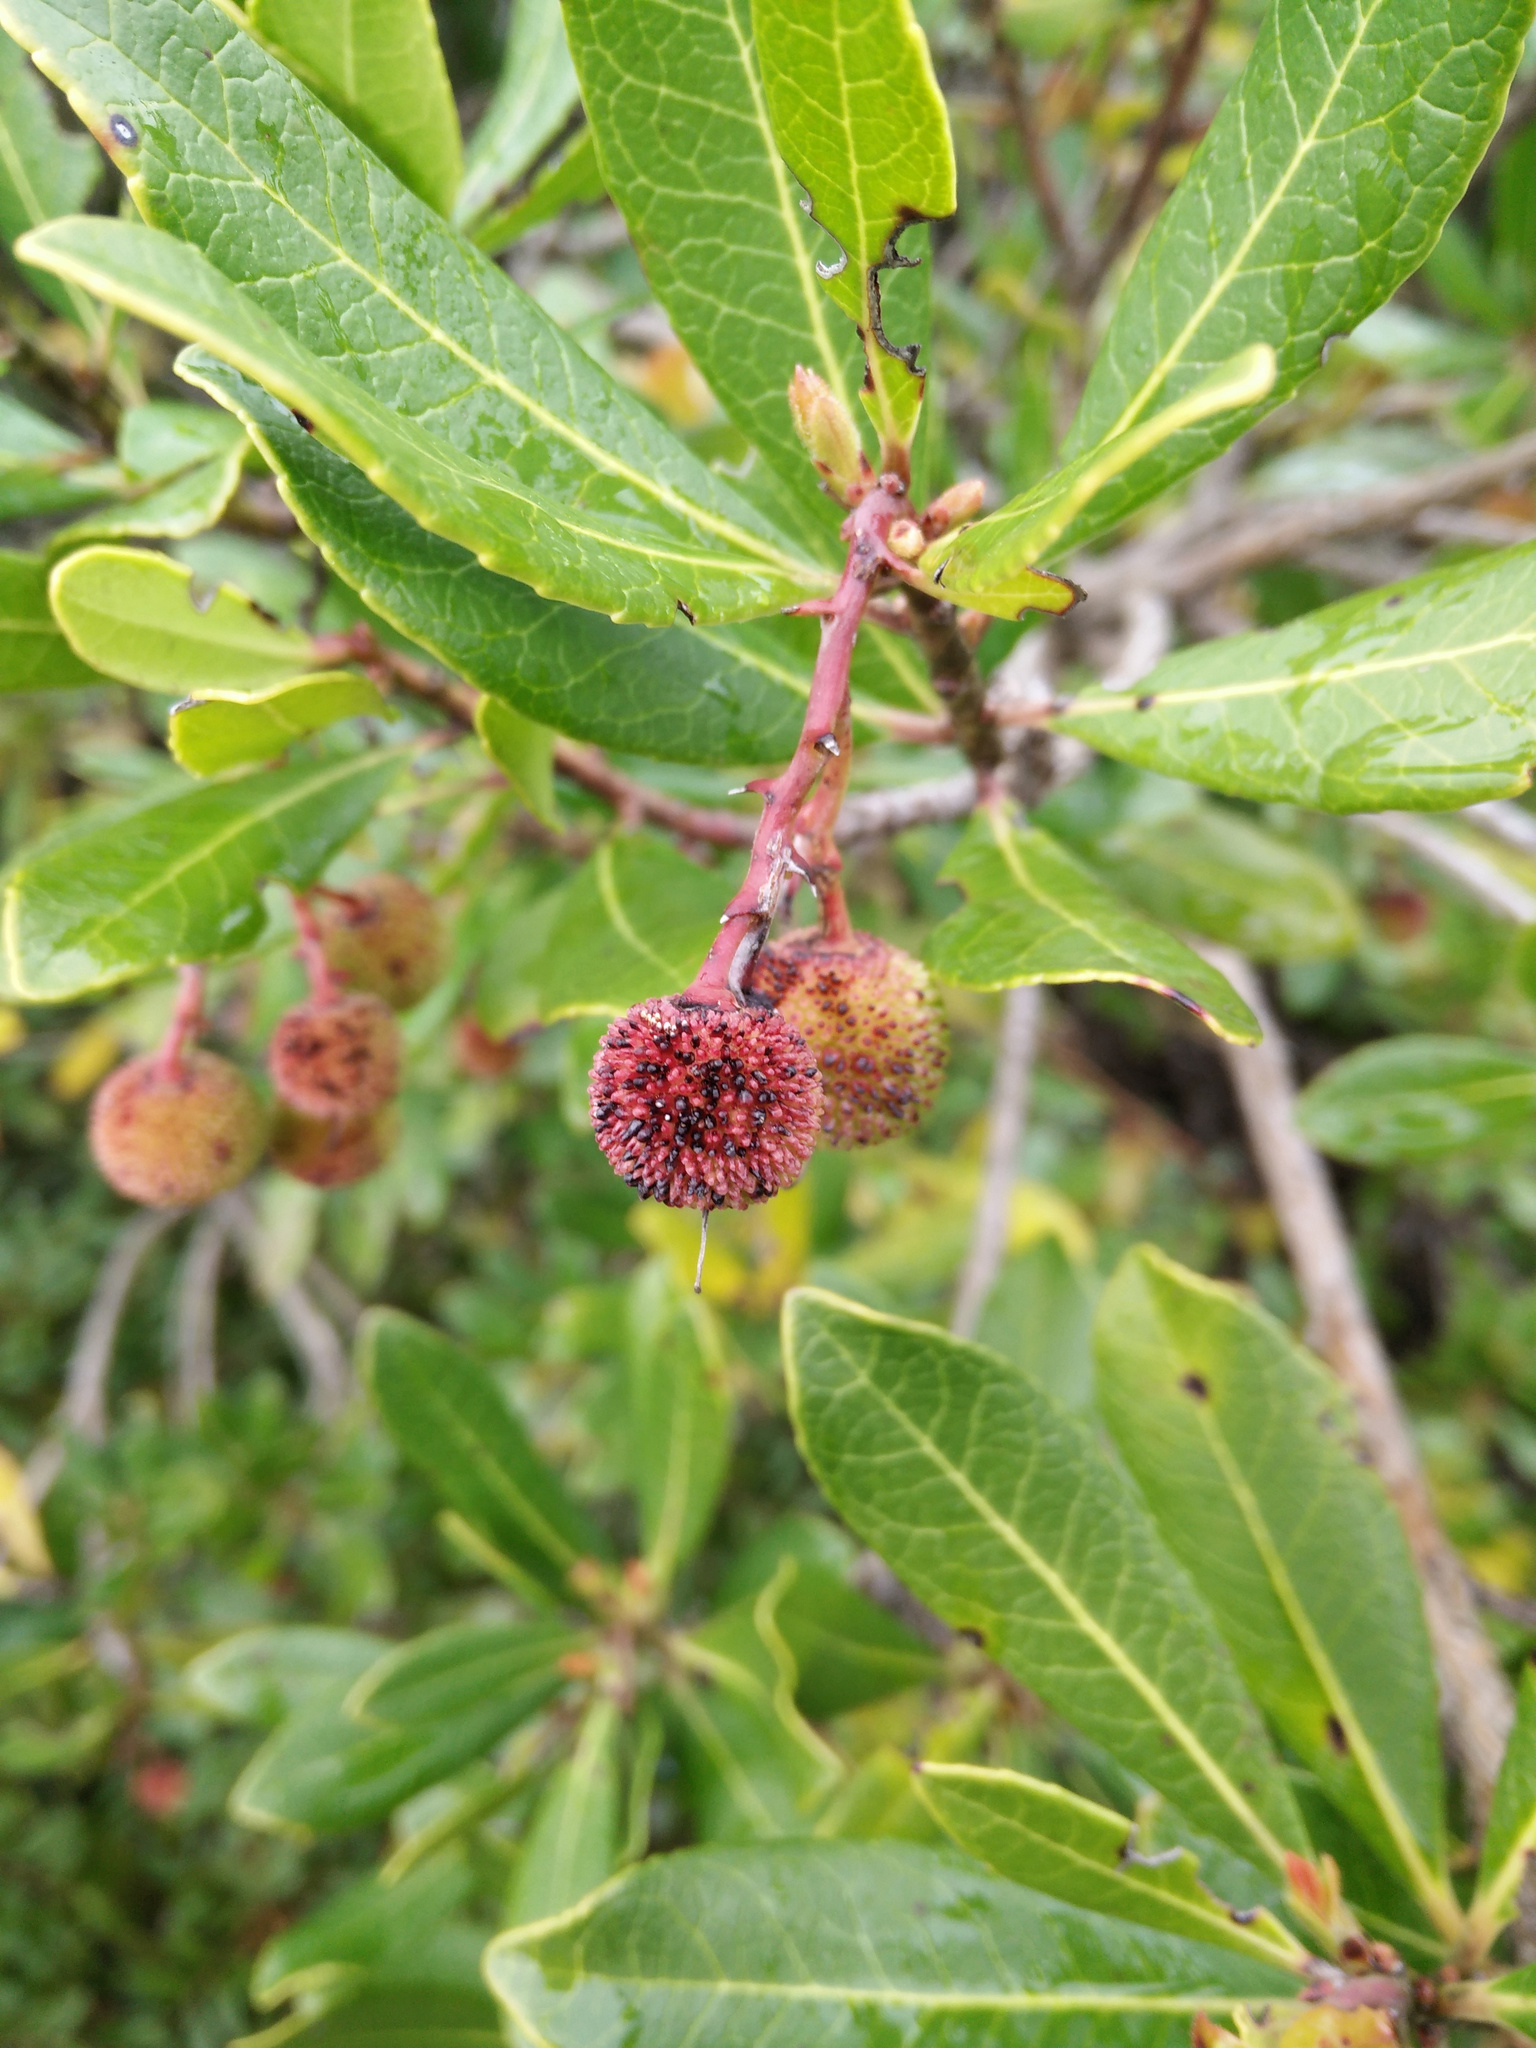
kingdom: Plantae
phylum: Tracheophyta
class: Magnoliopsida
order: Ericales
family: Ericaceae
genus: Arbutus
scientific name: Arbutus unedo
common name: Strawberry-tree
